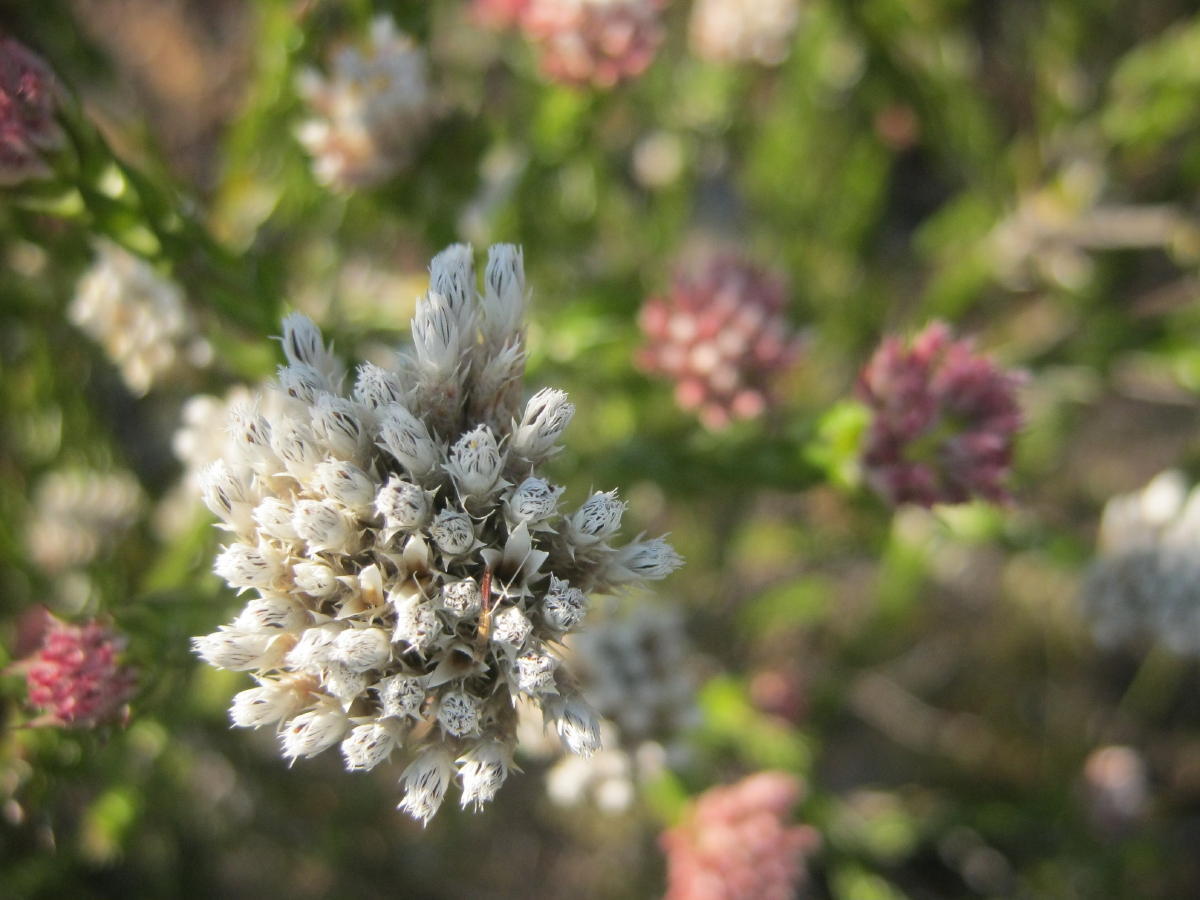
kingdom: Plantae
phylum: Tracheophyta
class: Magnoliopsida
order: Asterales
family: Asteraceae
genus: Metalasia
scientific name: Metalasia pulcherrima
